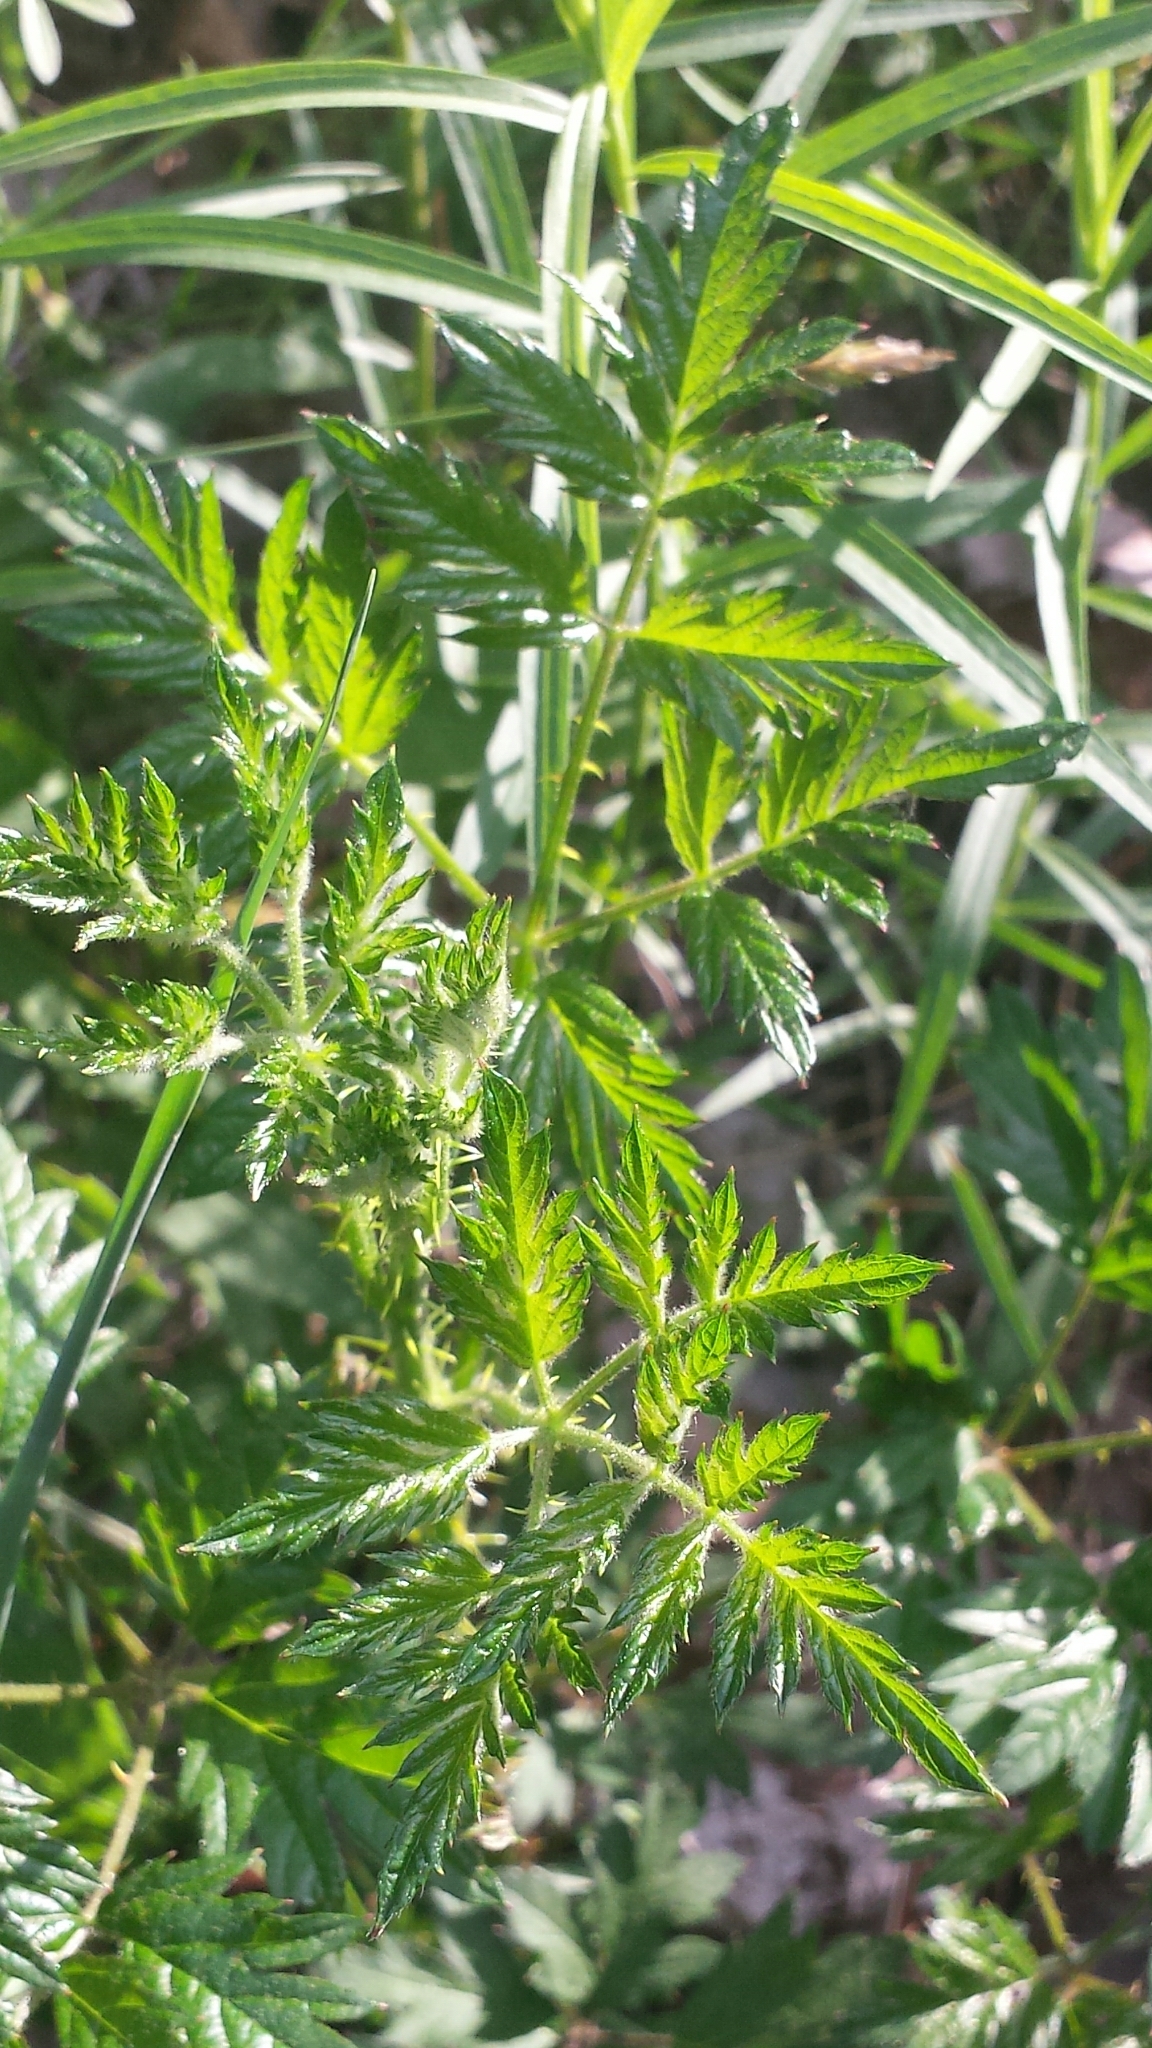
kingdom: Plantae
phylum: Tracheophyta
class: Magnoliopsida
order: Rosales
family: Rosaceae
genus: Rubus
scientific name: Rubus laciniatus
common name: Evergreen blackberry
